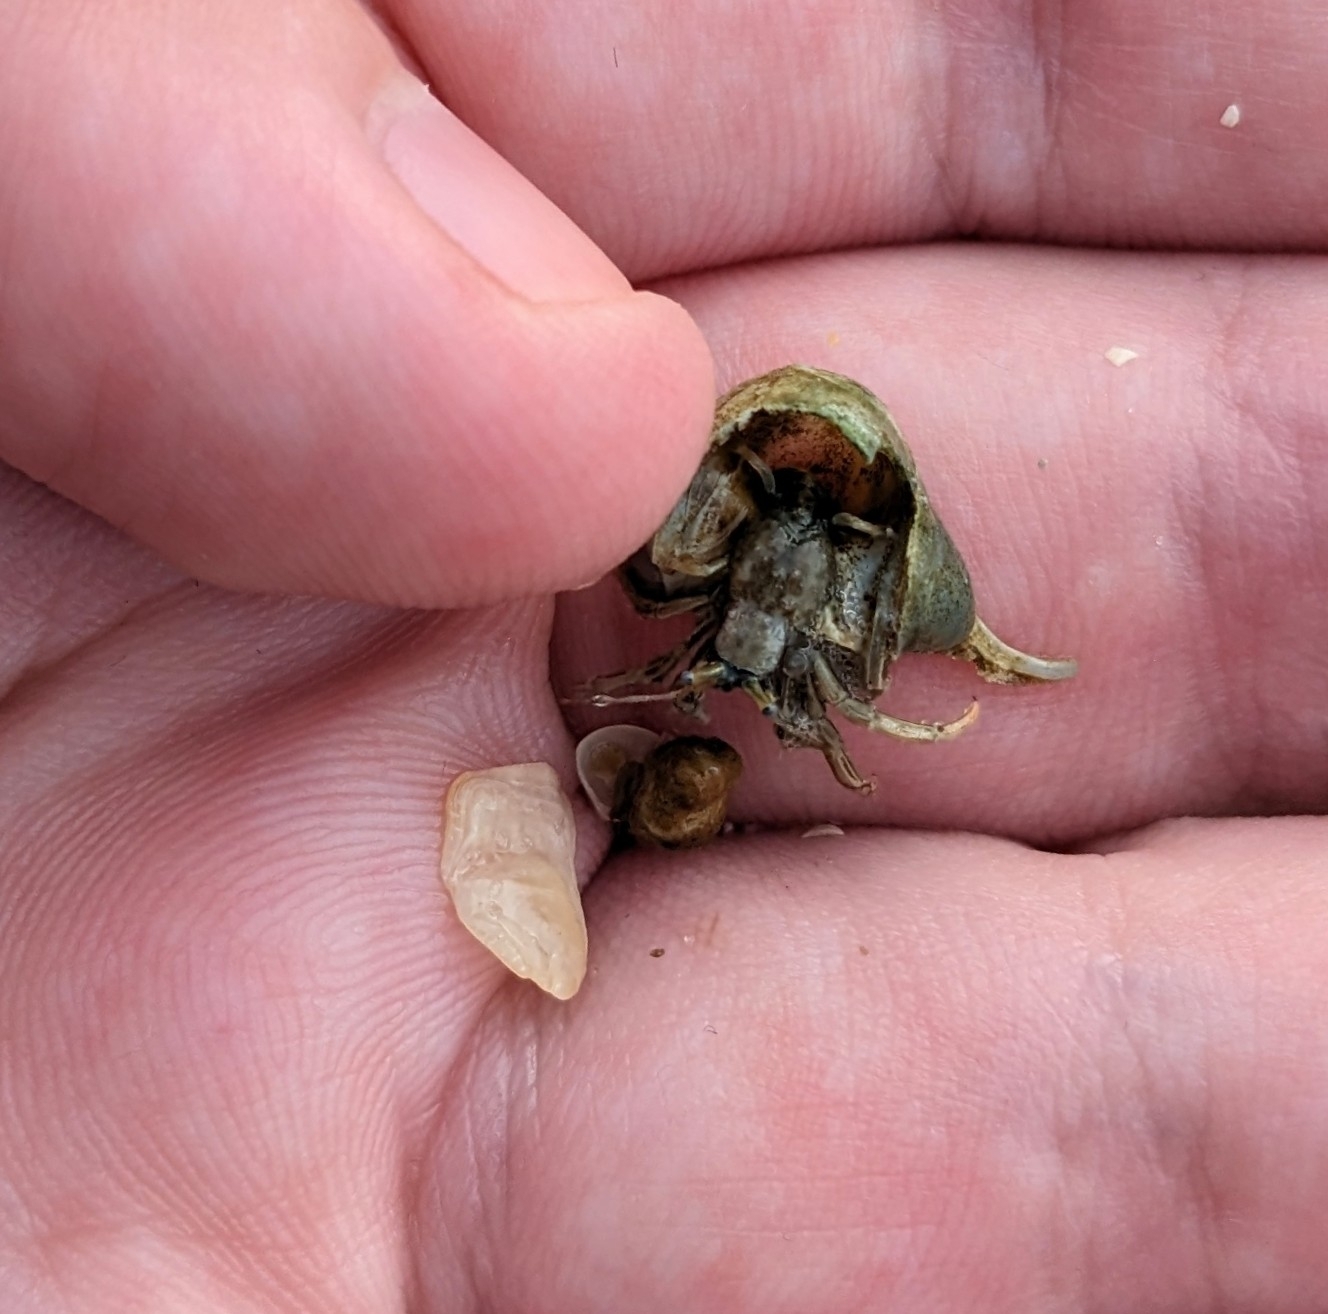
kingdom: Animalia
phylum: Arthropoda
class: Malacostraca
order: Decapoda
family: Diogenidae
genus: Clibanarius
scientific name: Clibanarius vittatus
